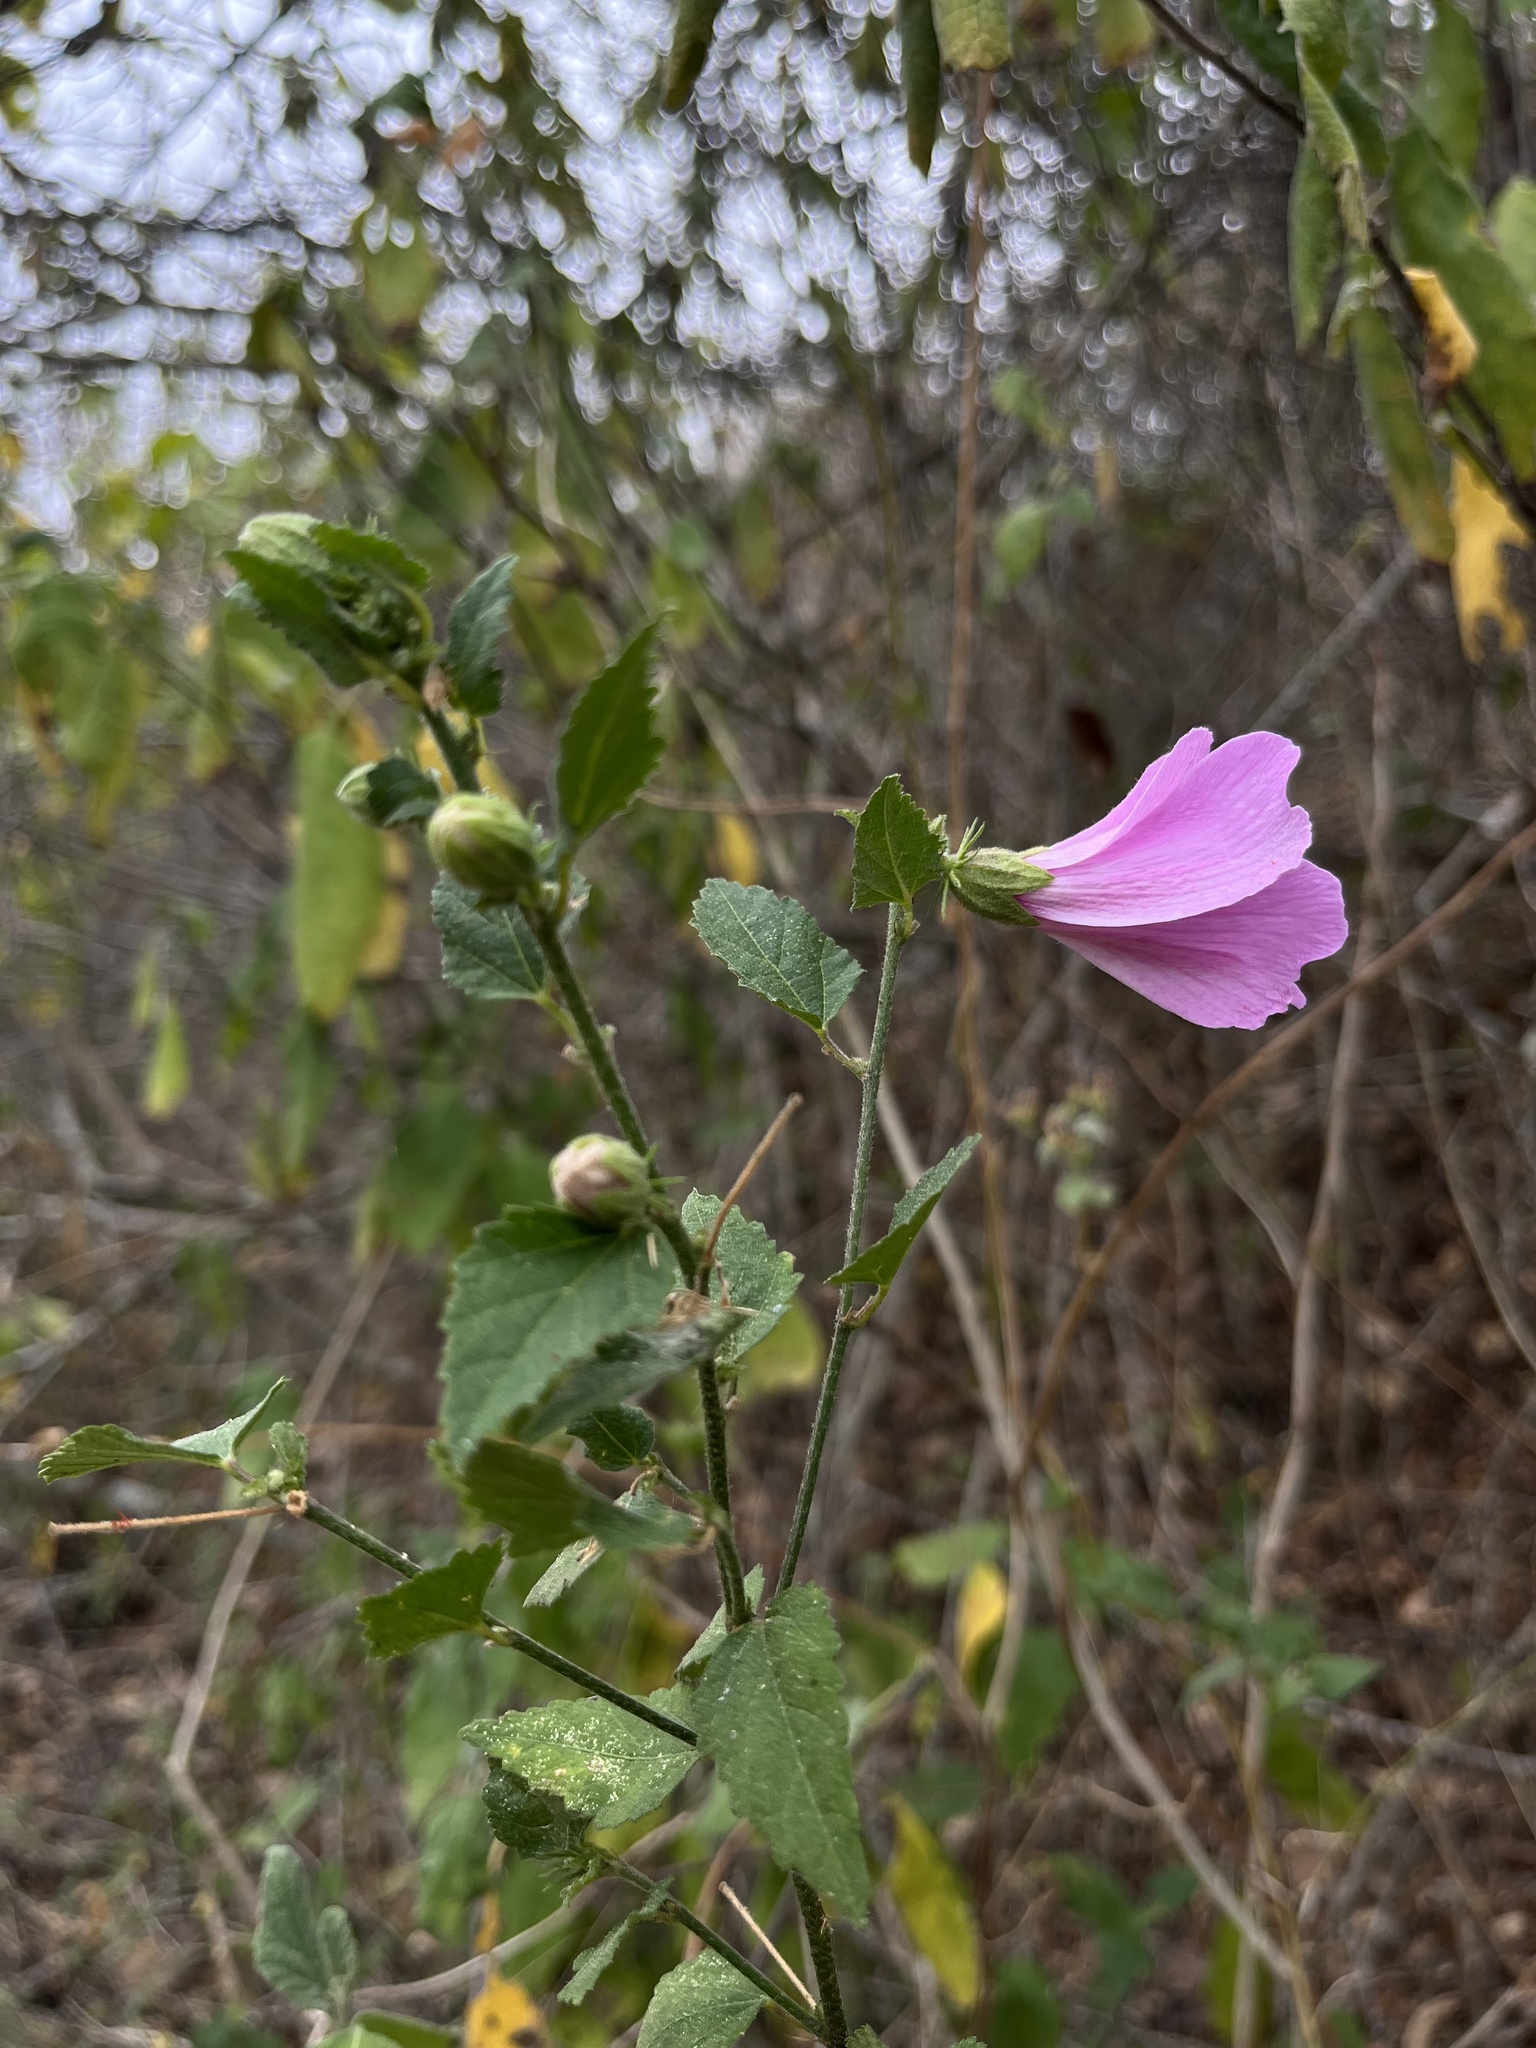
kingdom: Plantae
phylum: Tracheophyta
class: Magnoliopsida
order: Malvales
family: Malvaceae
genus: Hibiscus
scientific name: Hibiscus escobariae
